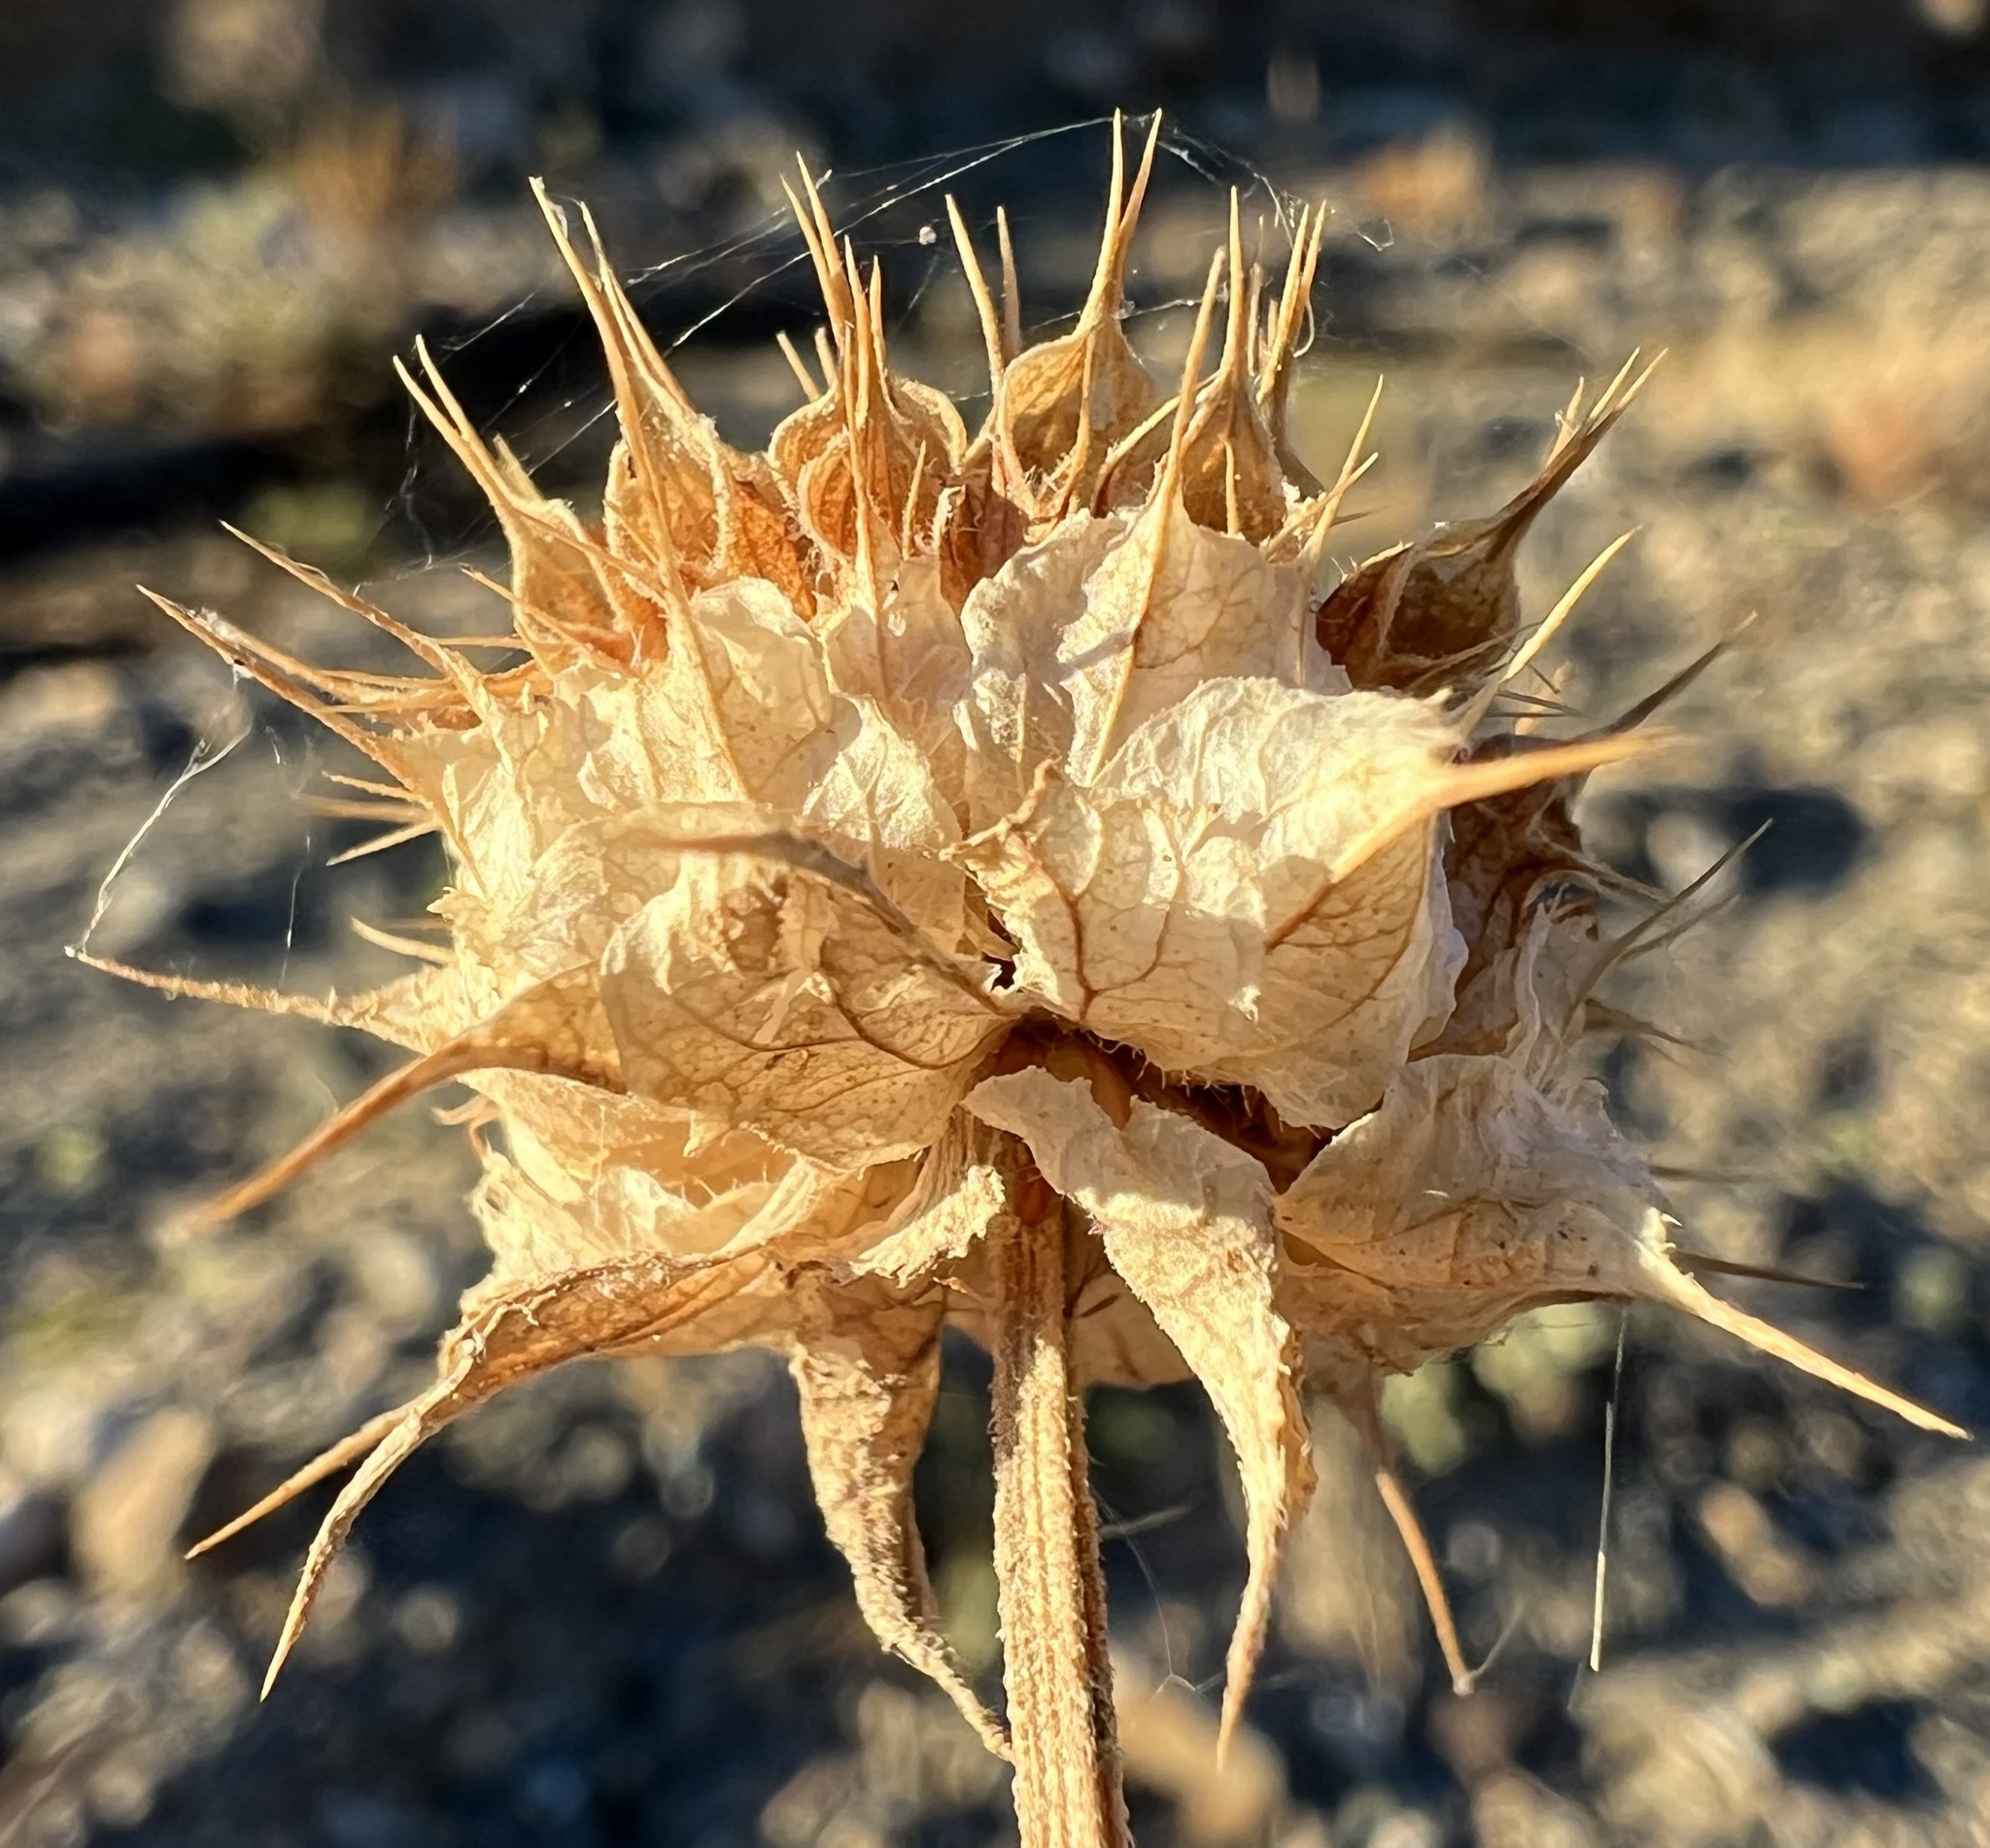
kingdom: Plantae
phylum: Tracheophyta
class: Magnoliopsida
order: Lamiales
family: Lamiaceae
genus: Salvia
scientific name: Salvia columbariae
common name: Chia
